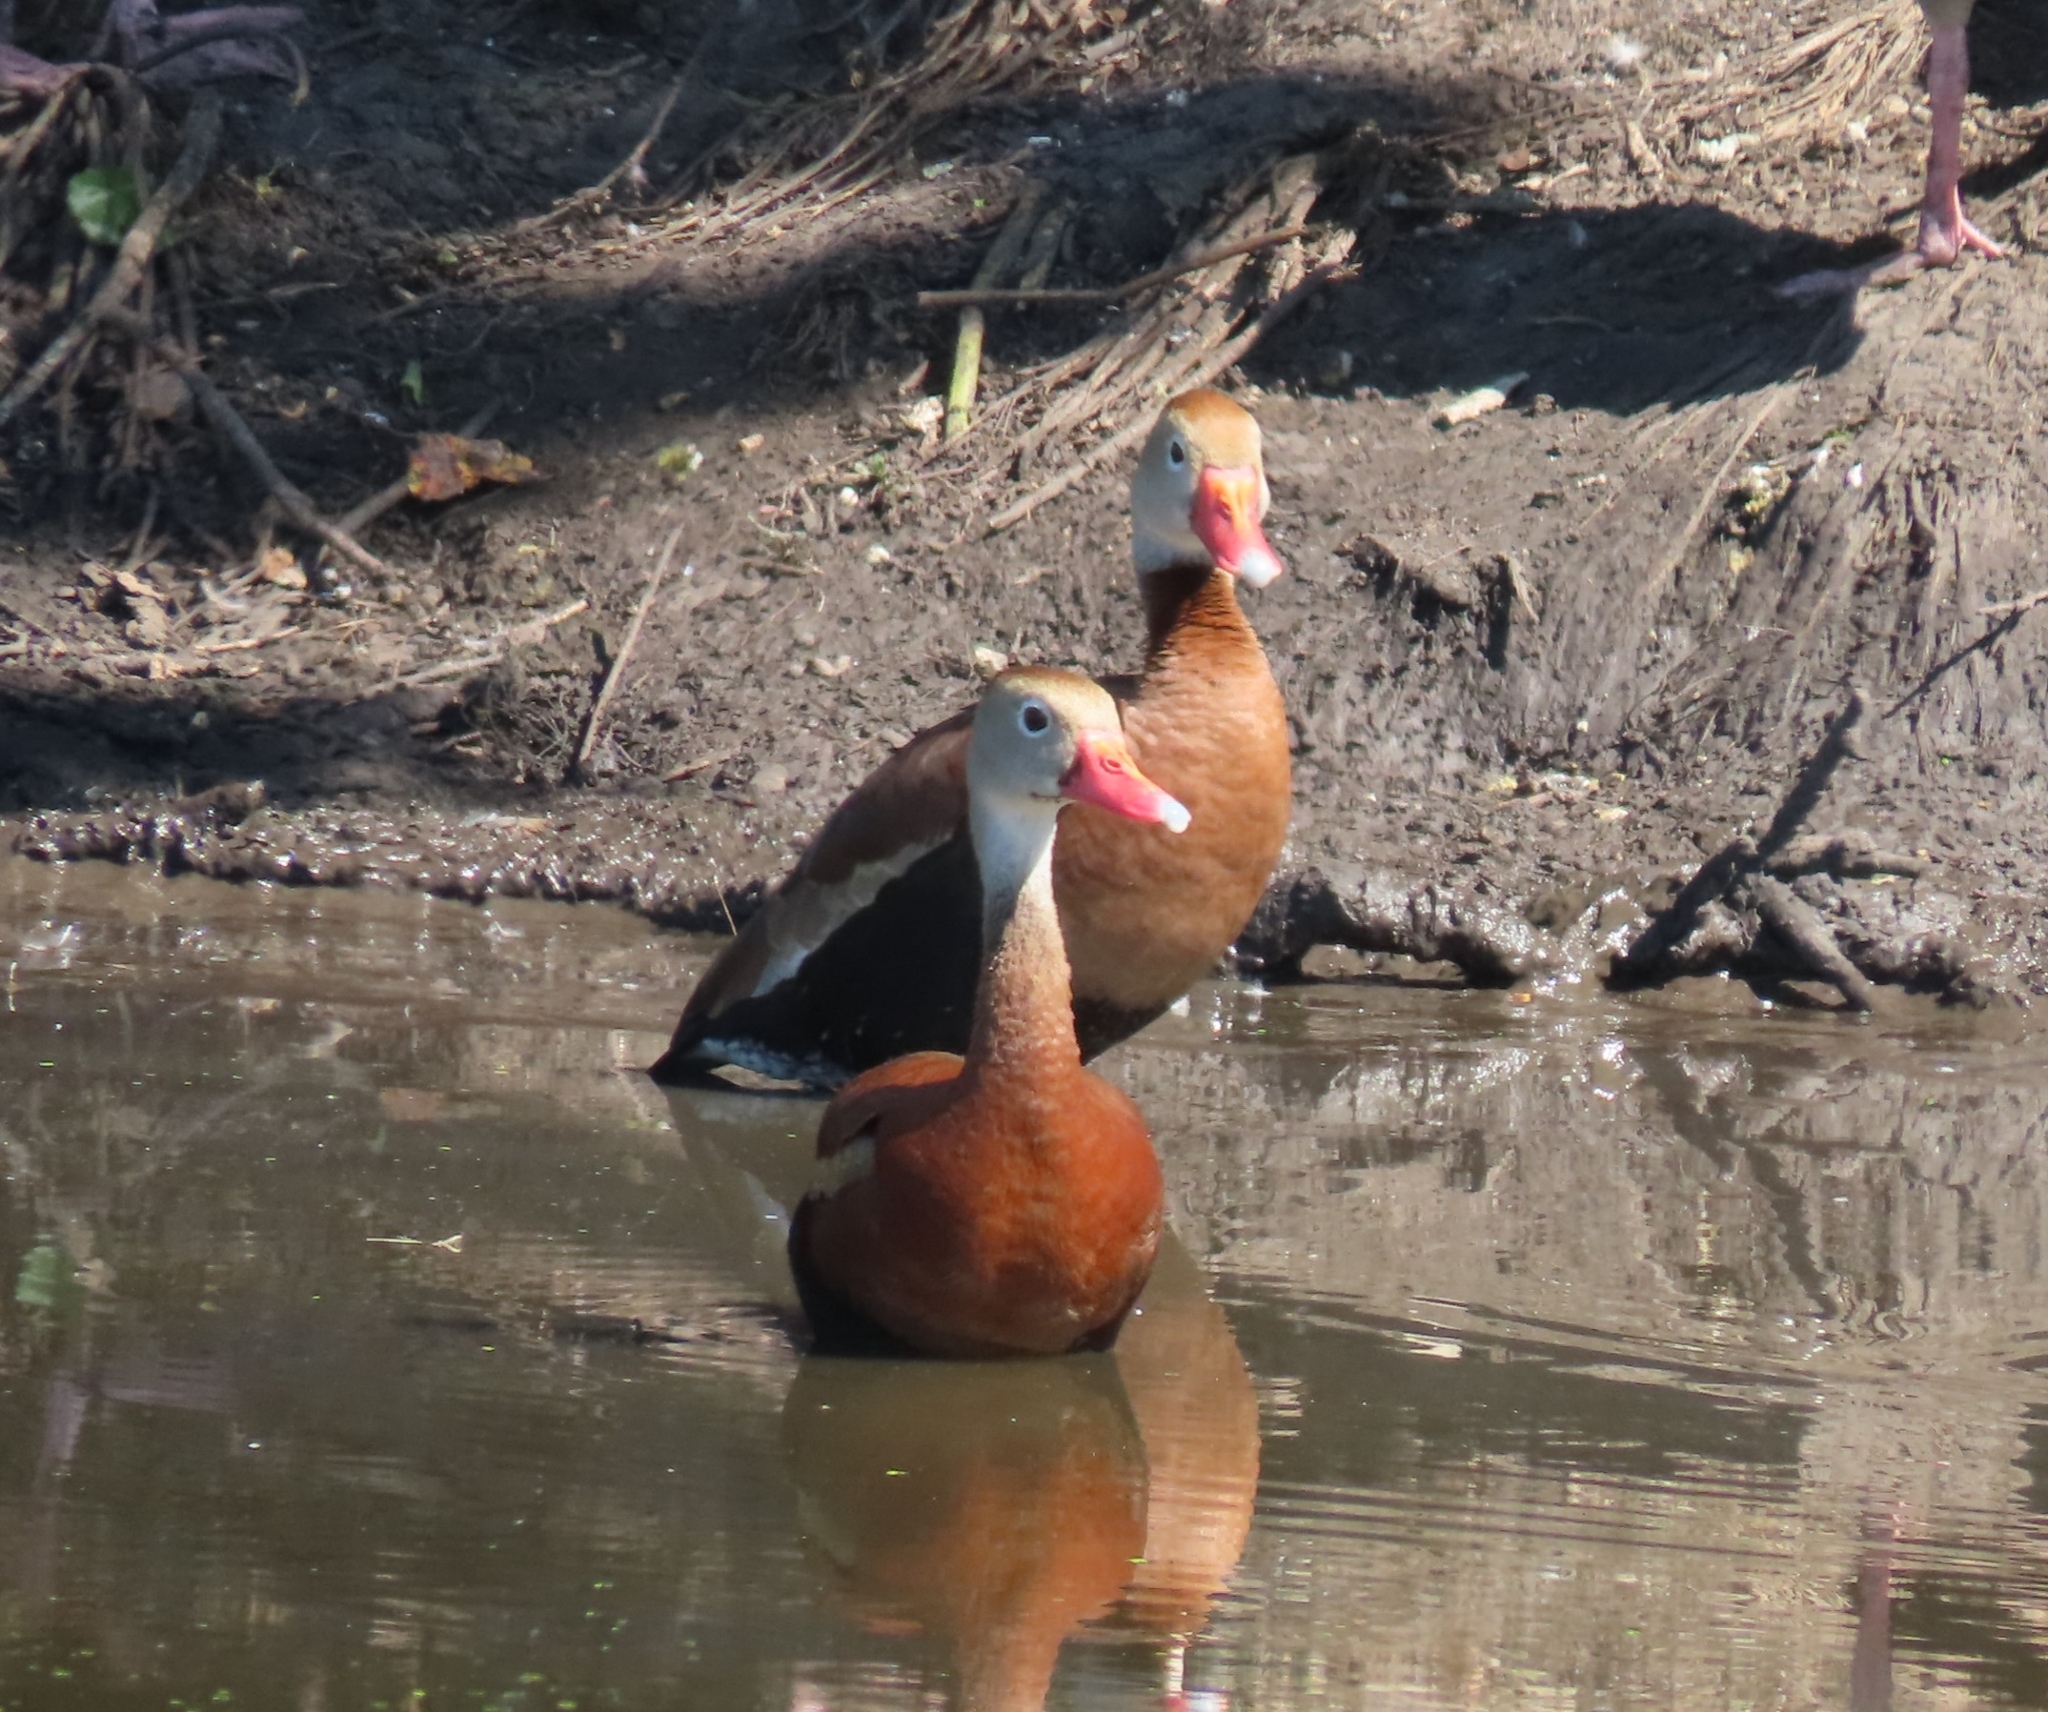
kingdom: Animalia
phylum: Chordata
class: Aves
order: Anseriformes
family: Anatidae
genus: Dendrocygna
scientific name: Dendrocygna autumnalis
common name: Black-bellied whistling duck
